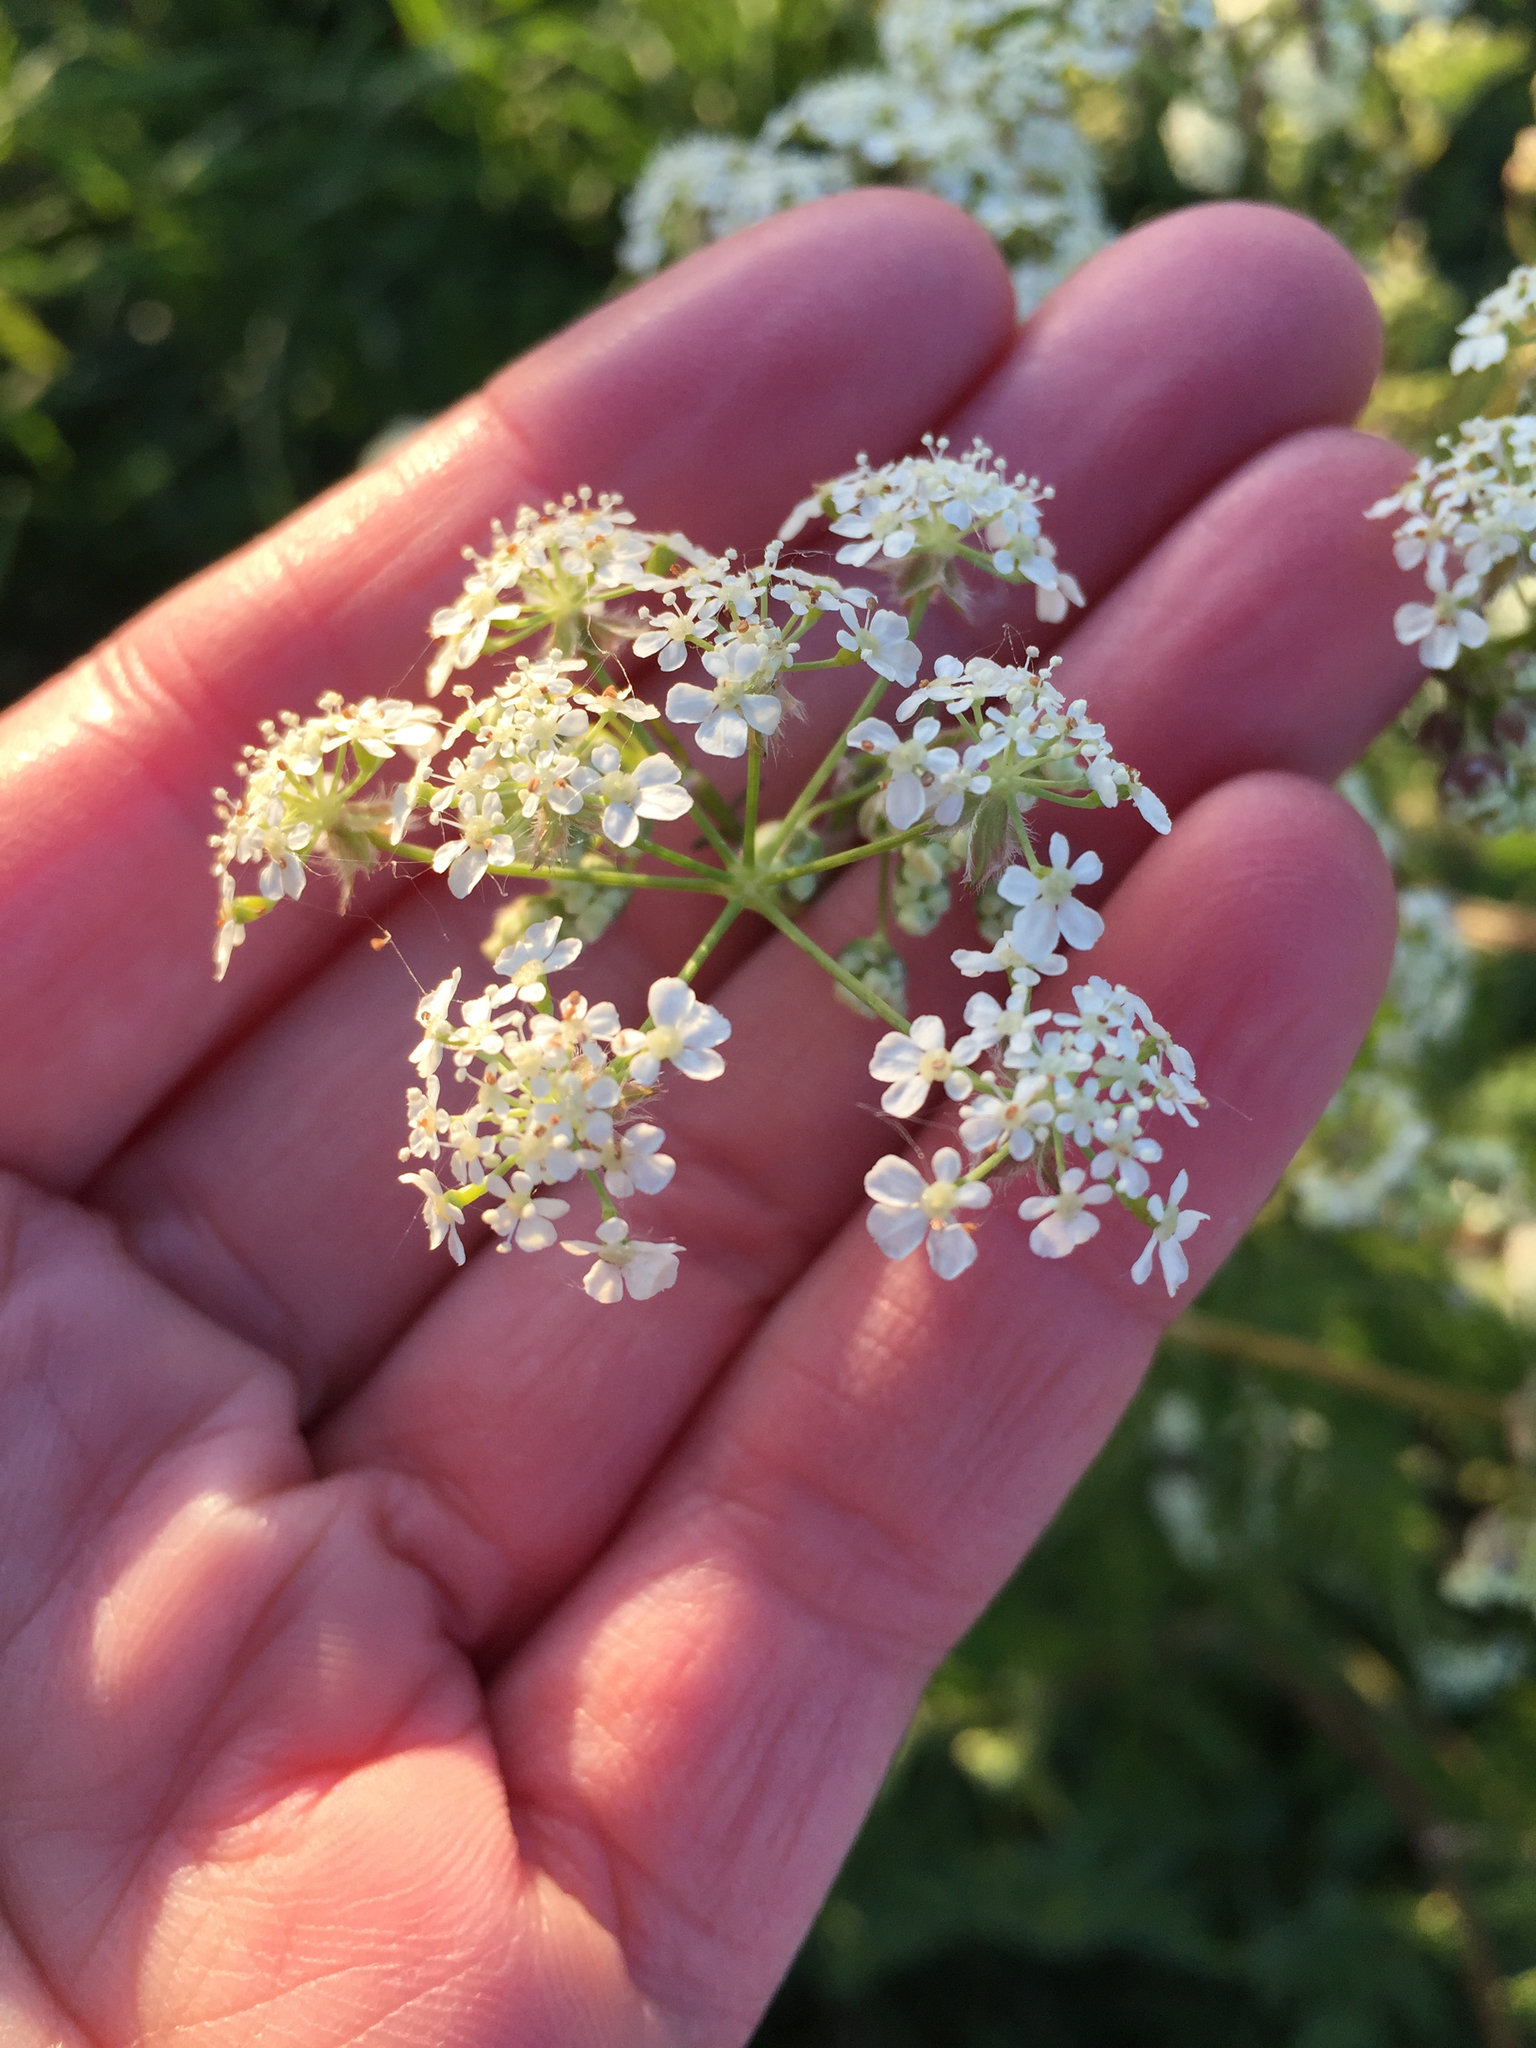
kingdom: Plantae
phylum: Tracheophyta
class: Magnoliopsida
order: Apiales
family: Apiaceae
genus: Anthriscus
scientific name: Anthriscus sylvestris
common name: Cow parsley
